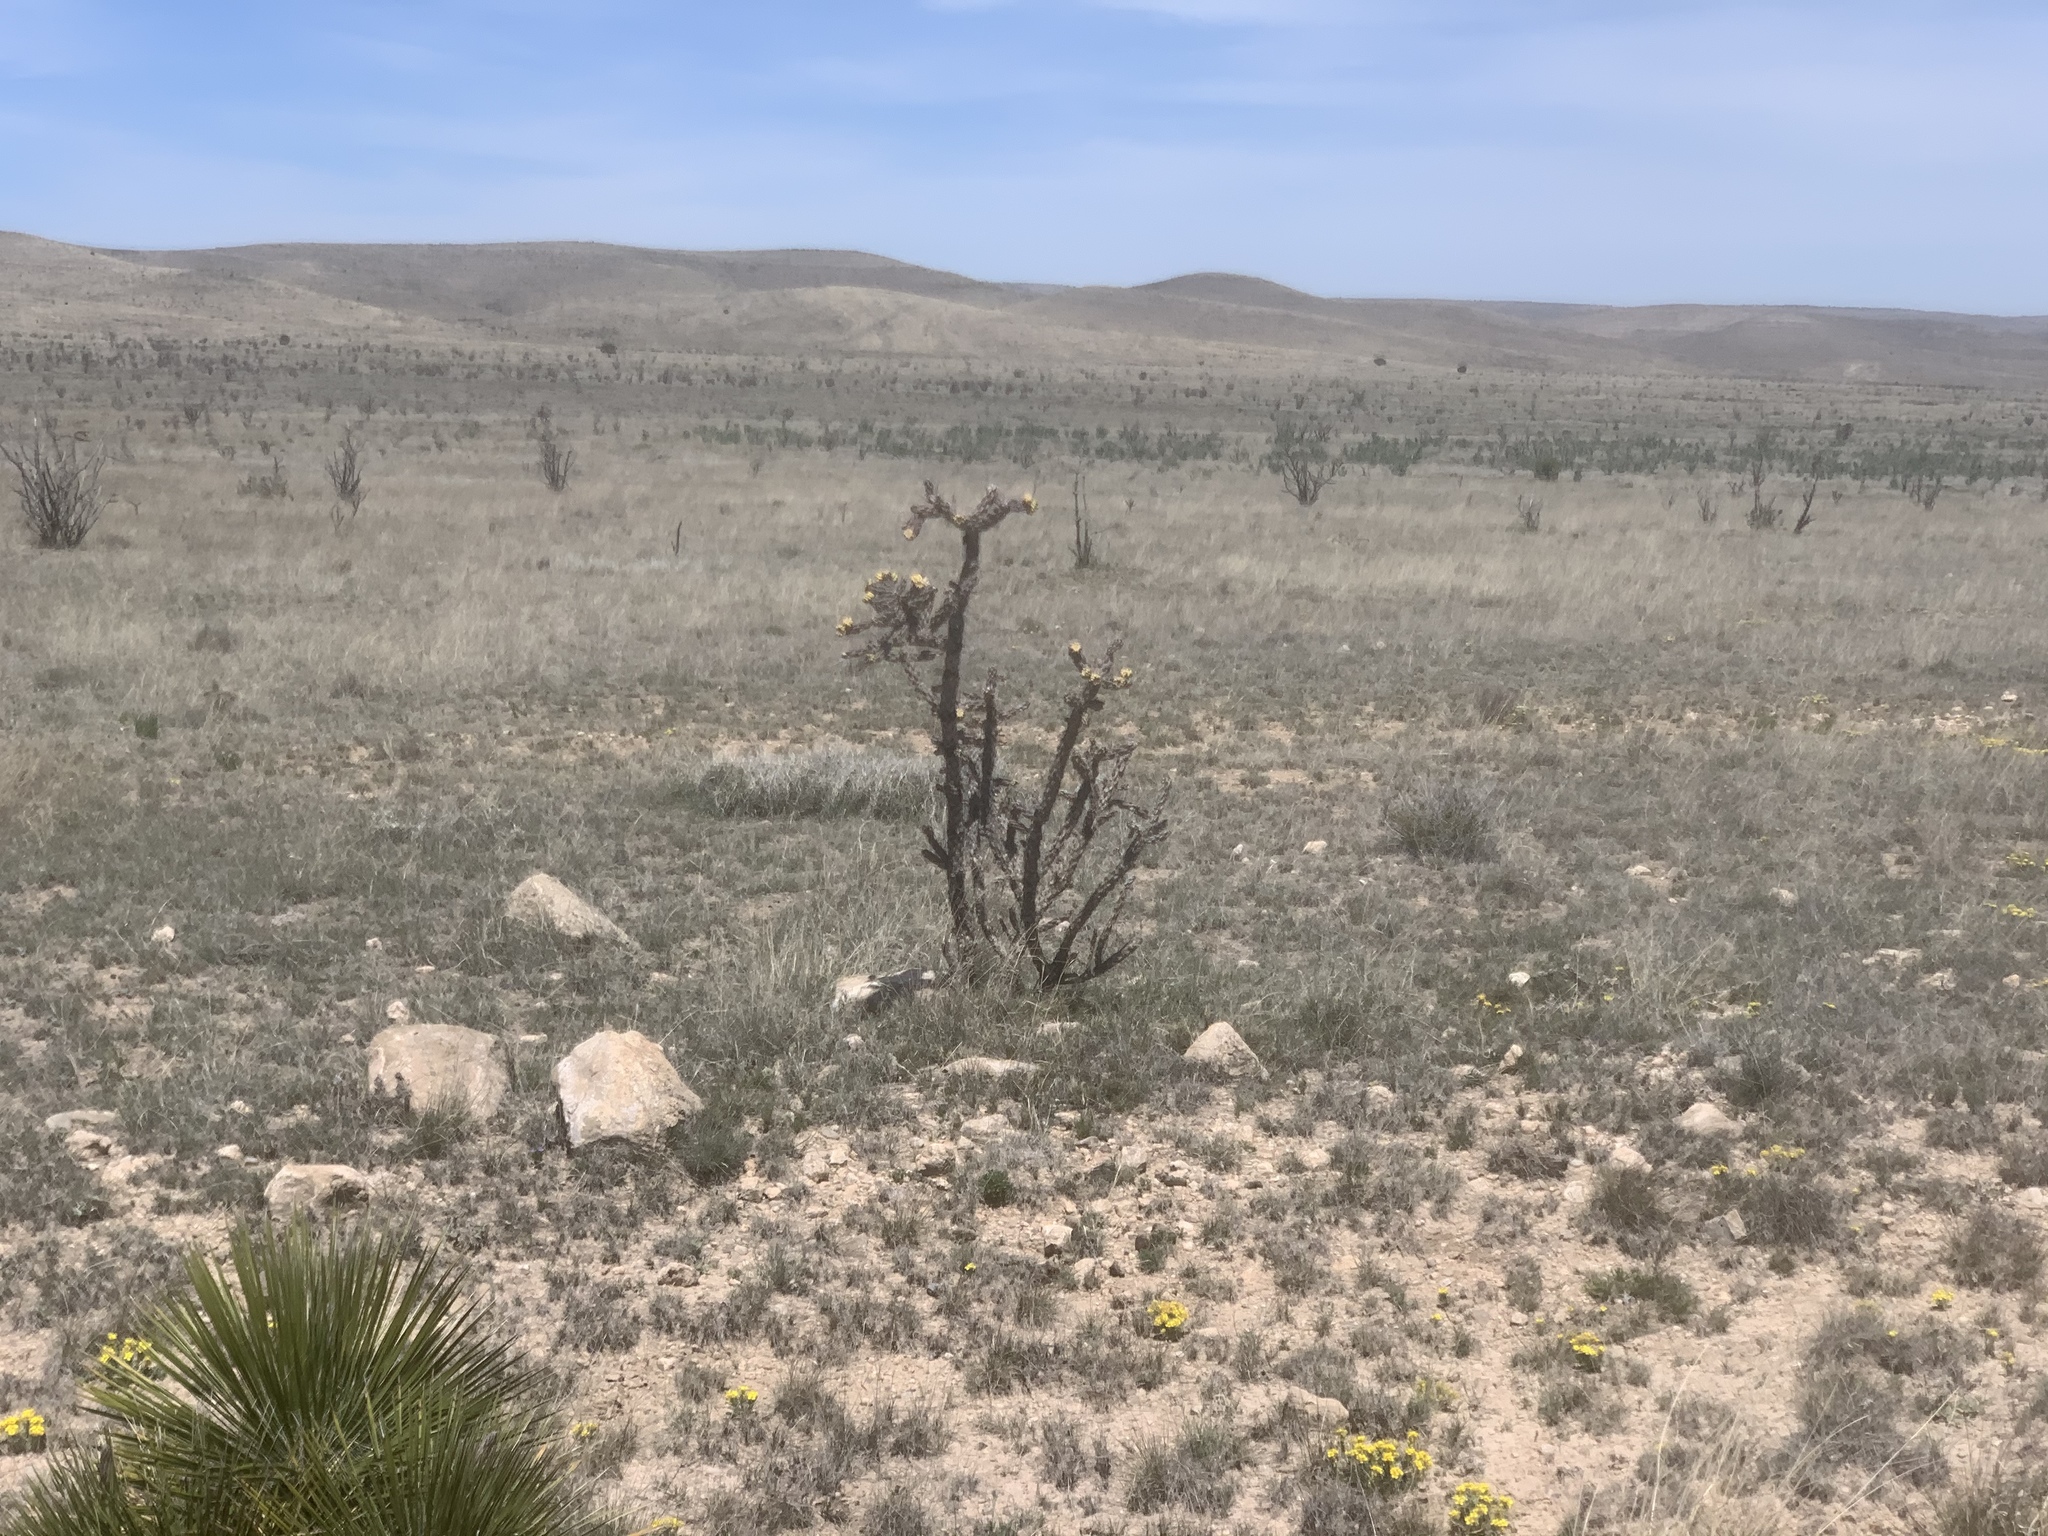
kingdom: Plantae
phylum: Tracheophyta
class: Magnoliopsida
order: Caryophyllales
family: Cactaceae
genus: Cylindropuntia
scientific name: Cylindropuntia imbricata
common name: Candelabrum cactus
